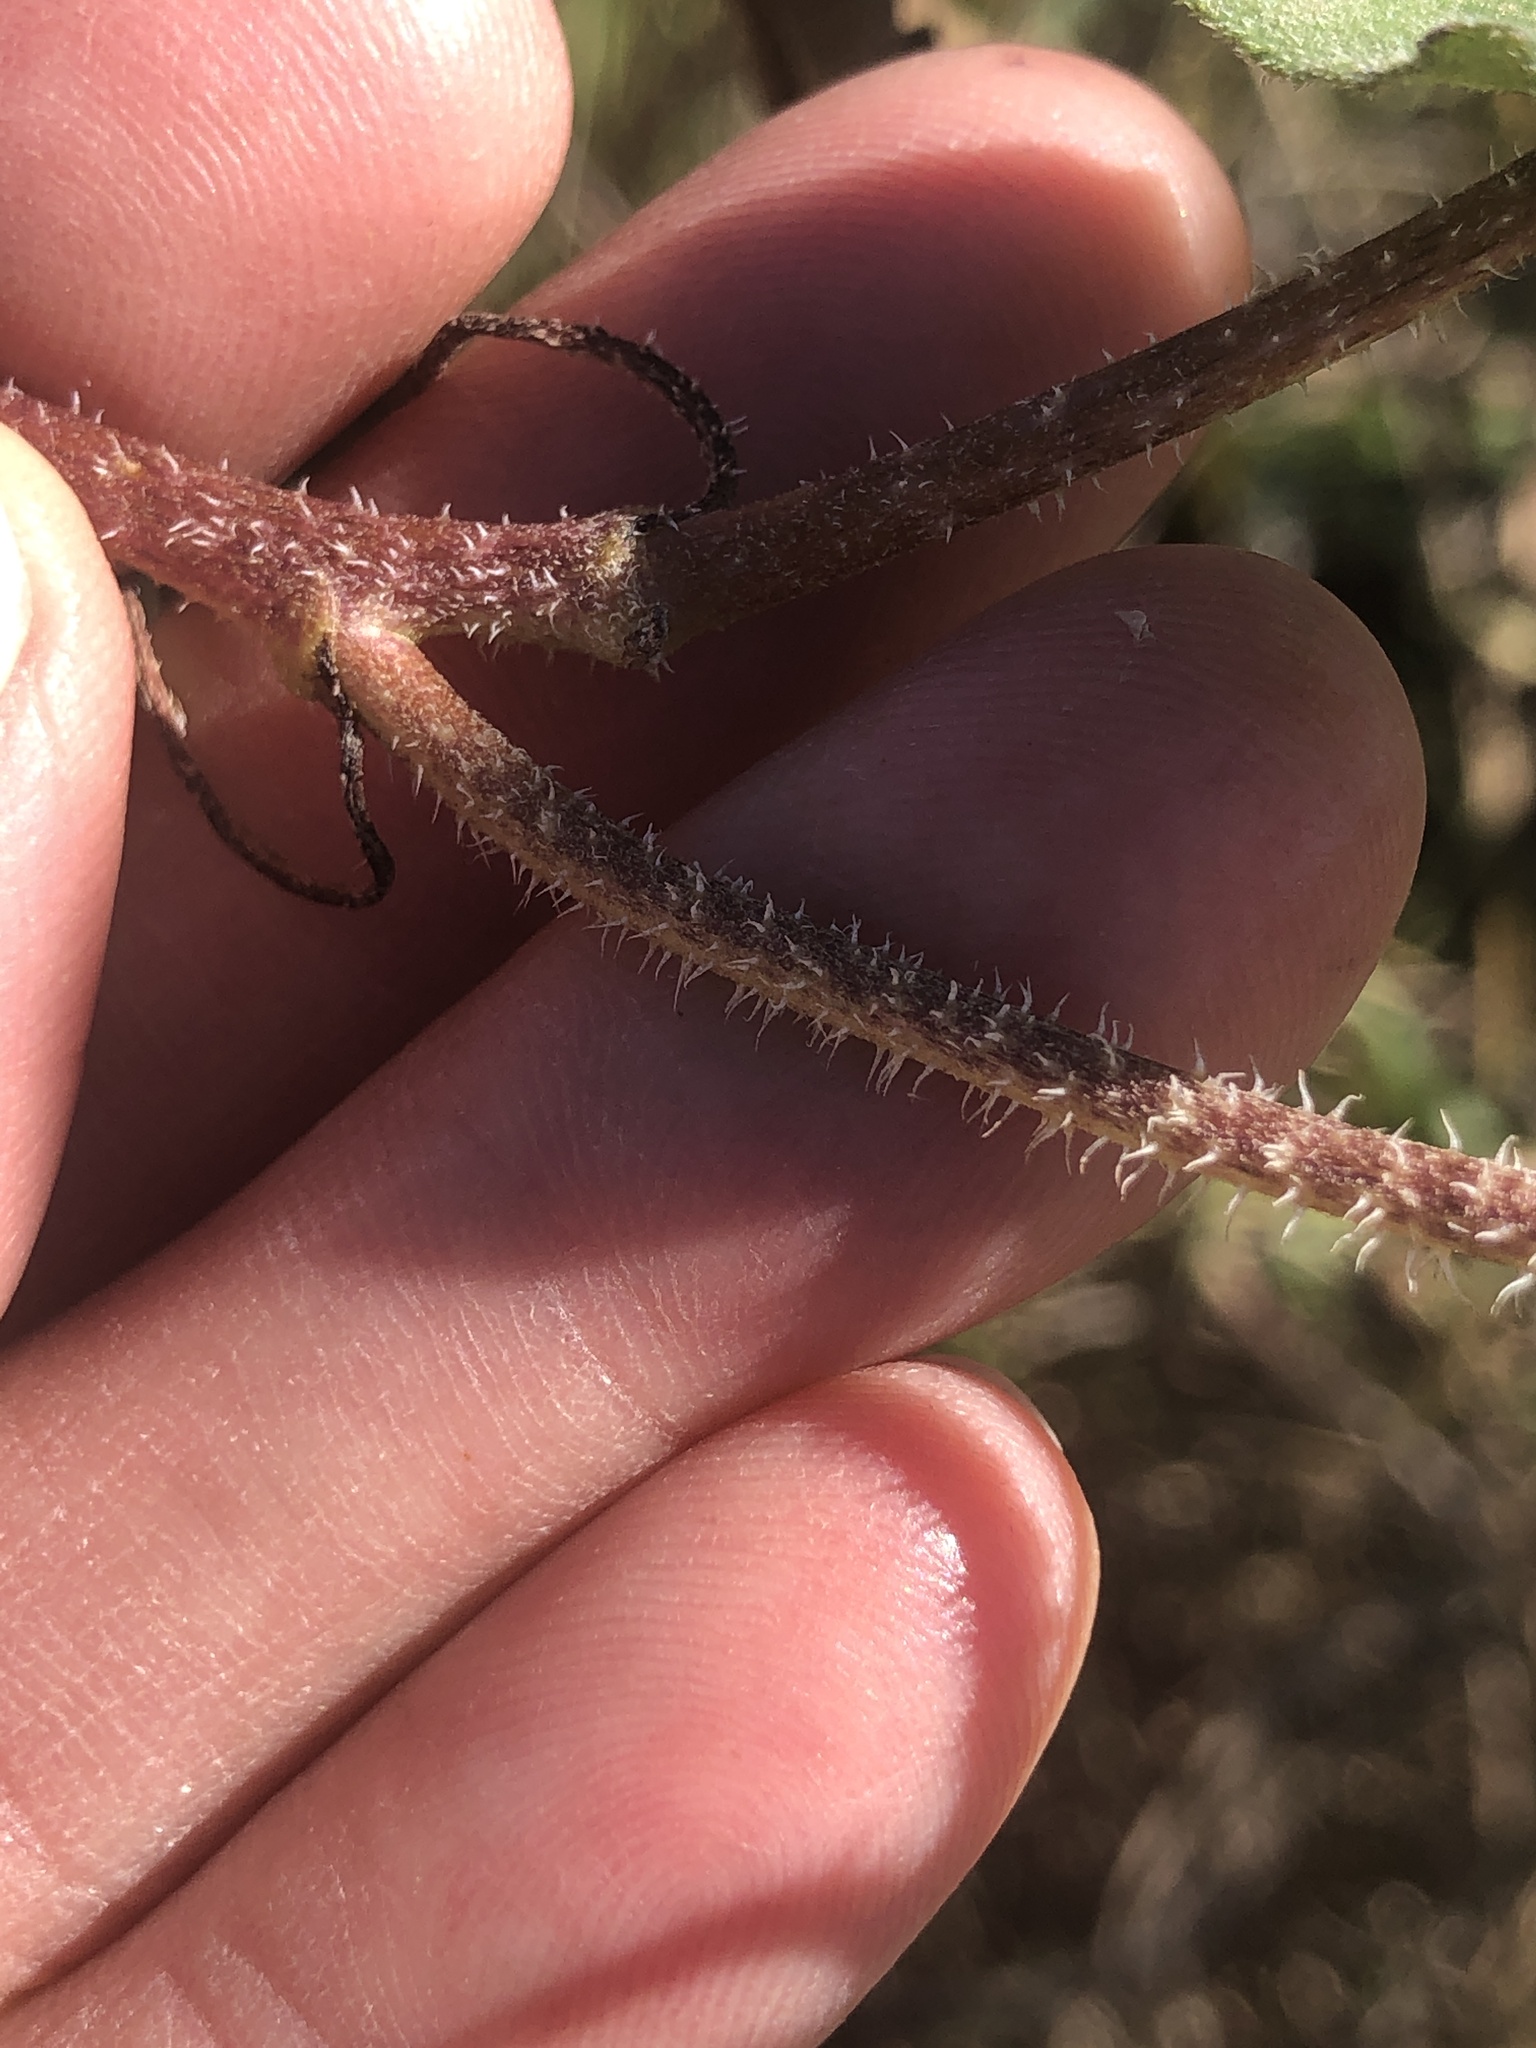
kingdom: Plantae
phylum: Tracheophyta
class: Magnoliopsida
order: Asterales
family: Asteraceae
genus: Helianthus
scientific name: Helianthus annuus
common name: Sunflower
